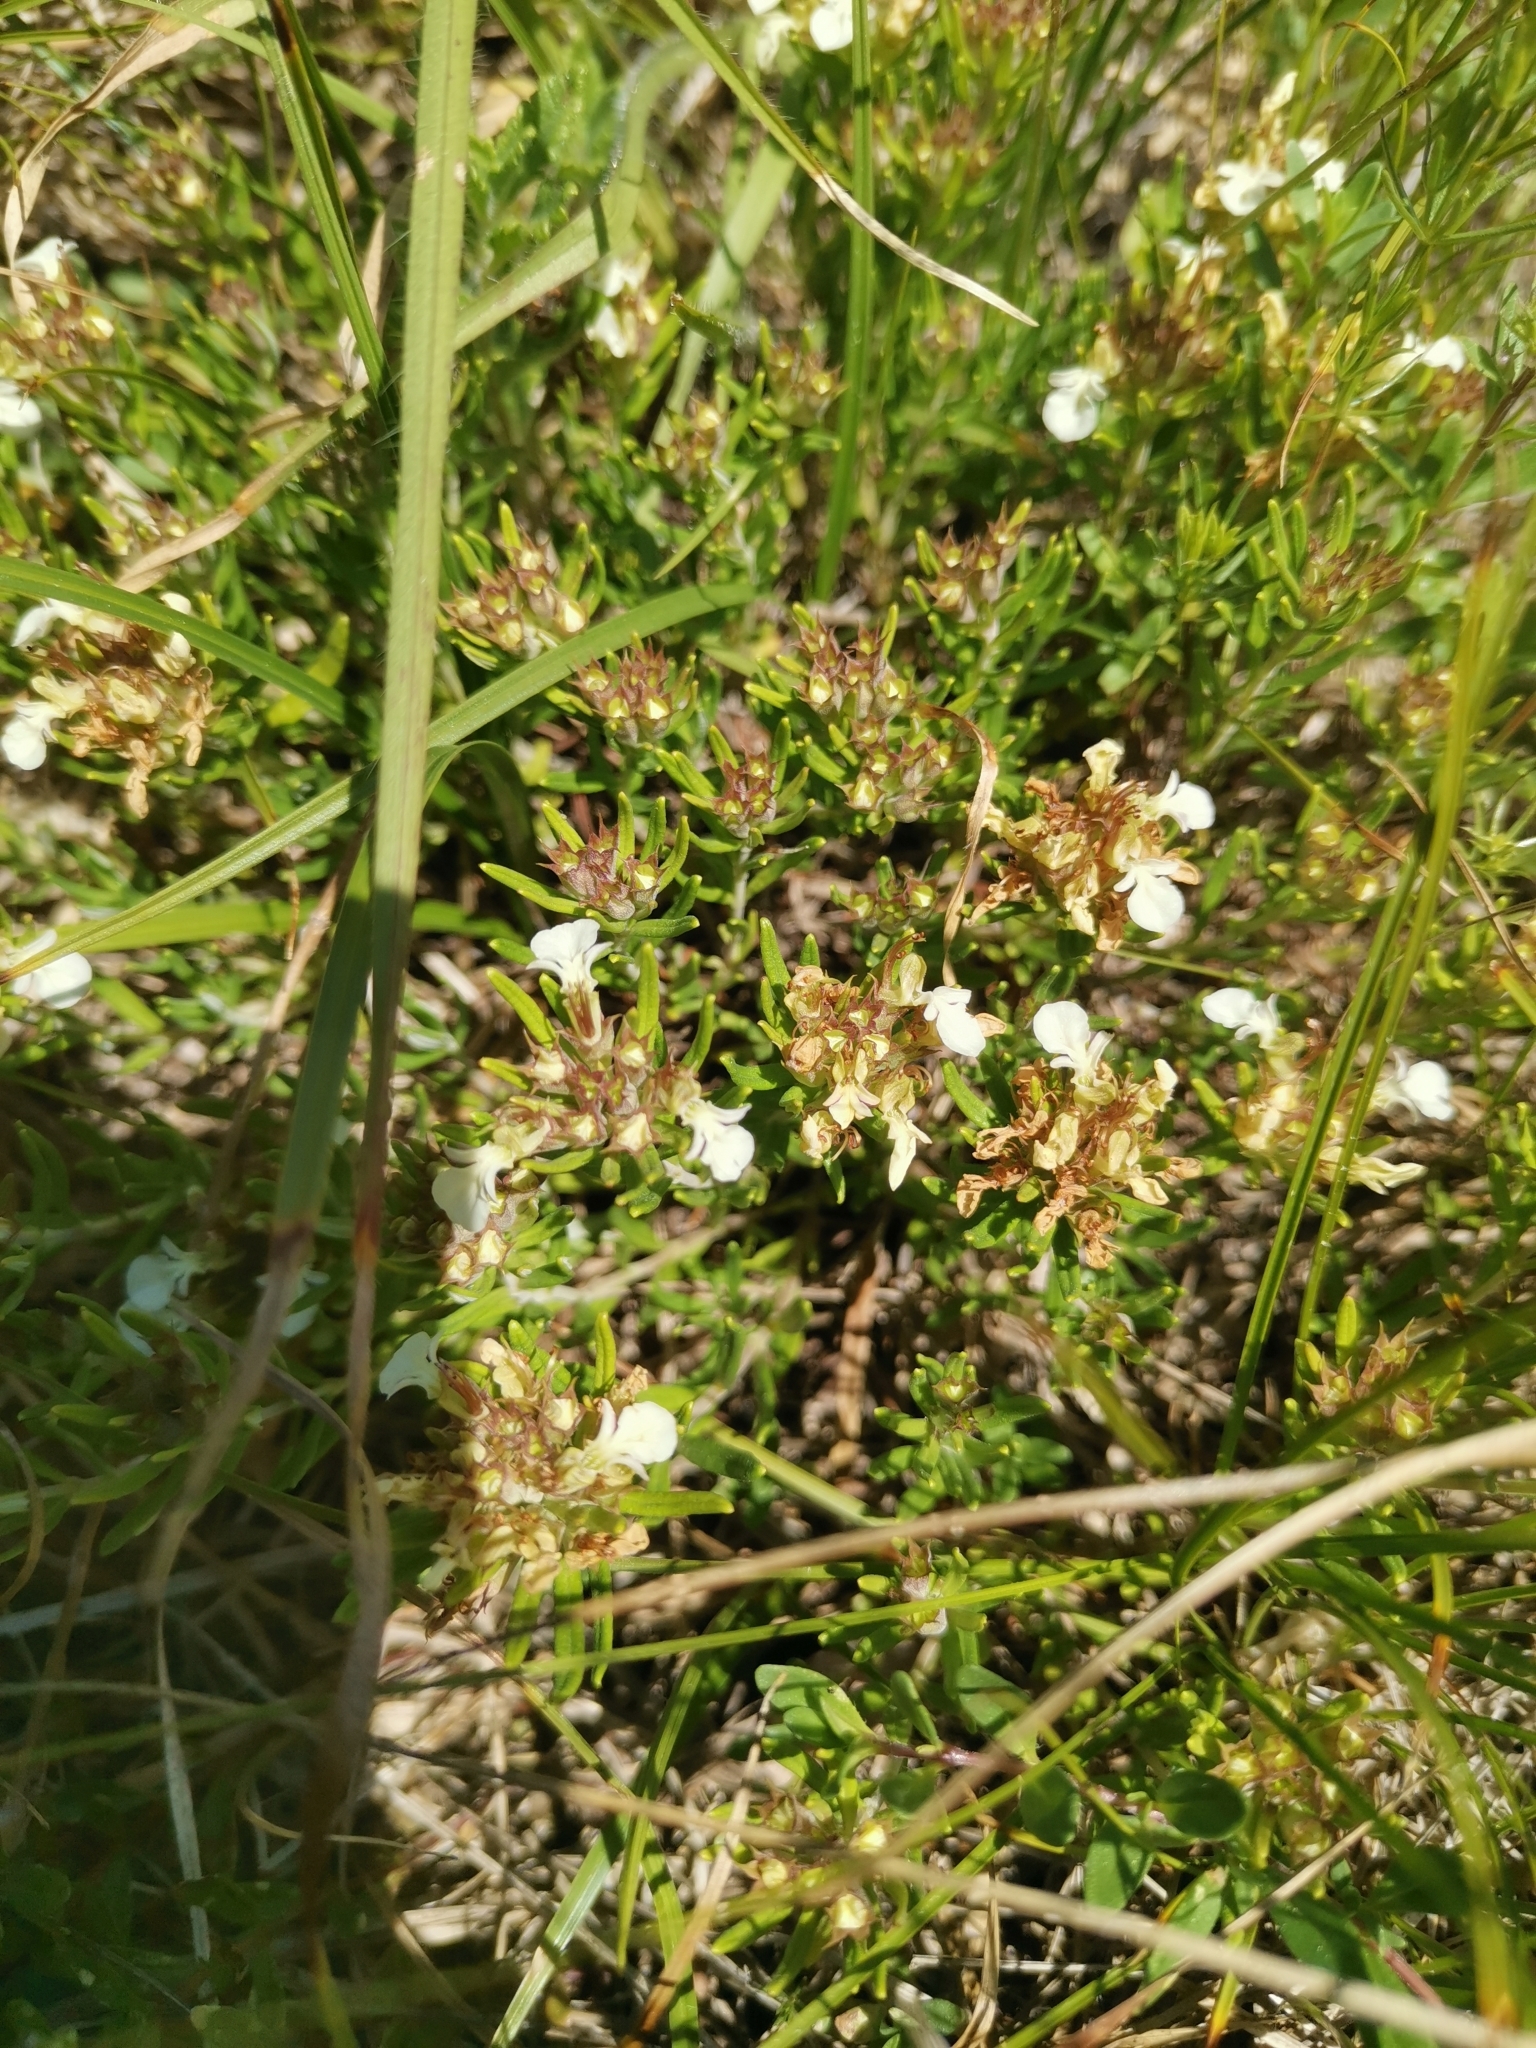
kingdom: Plantae
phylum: Tracheophyta
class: Magnoliopsida
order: Lamiales
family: Lamiaceae
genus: Teucrium
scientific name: Teucrium montanum
